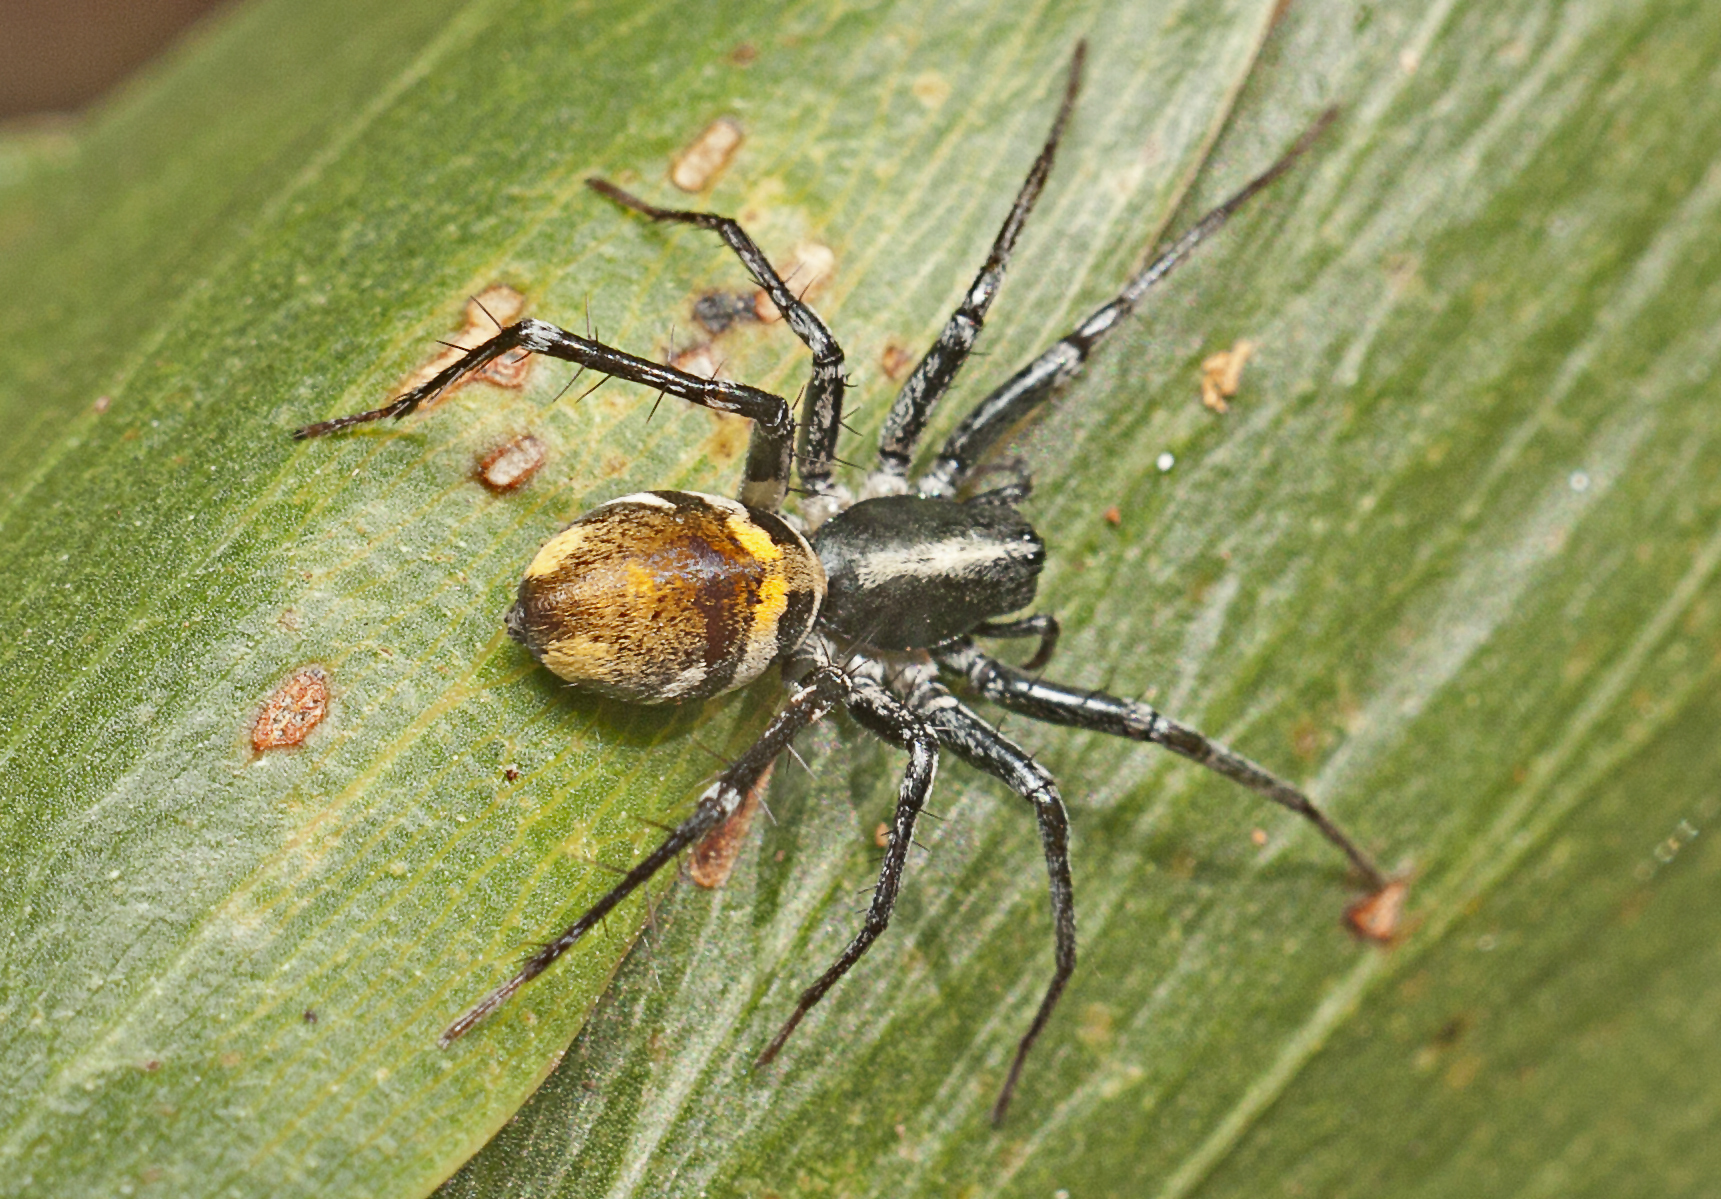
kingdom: Animalia
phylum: Arthropoda
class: Arachnida
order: Araneae
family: Corinnidae
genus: Nyssus
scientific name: Nyssus luteofinis
